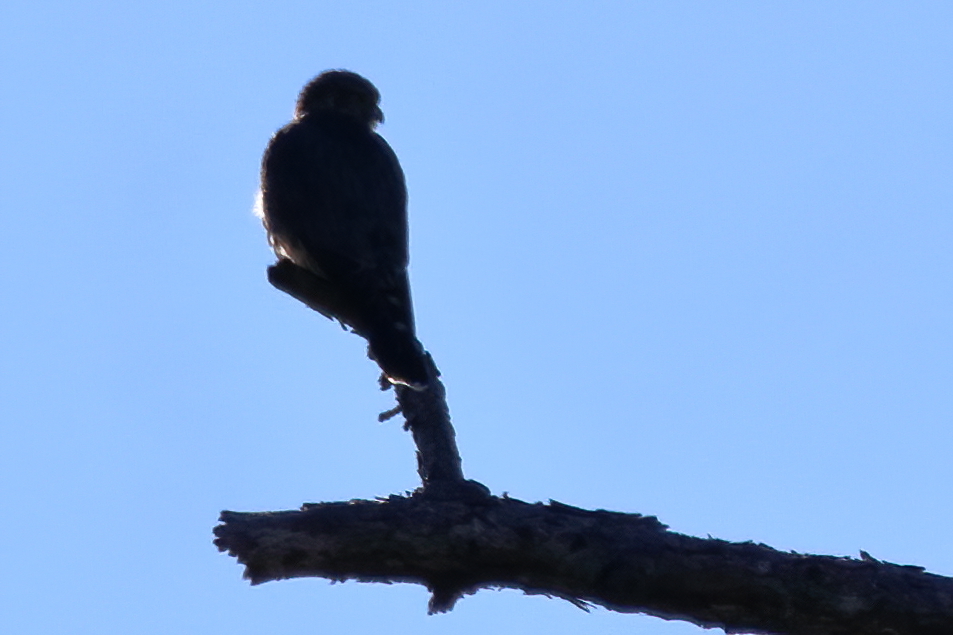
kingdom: Animalia
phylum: Chordata
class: Aves
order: Falconiformes
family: Falconidae
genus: Falco
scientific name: Falco sparverius
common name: American kestrel
